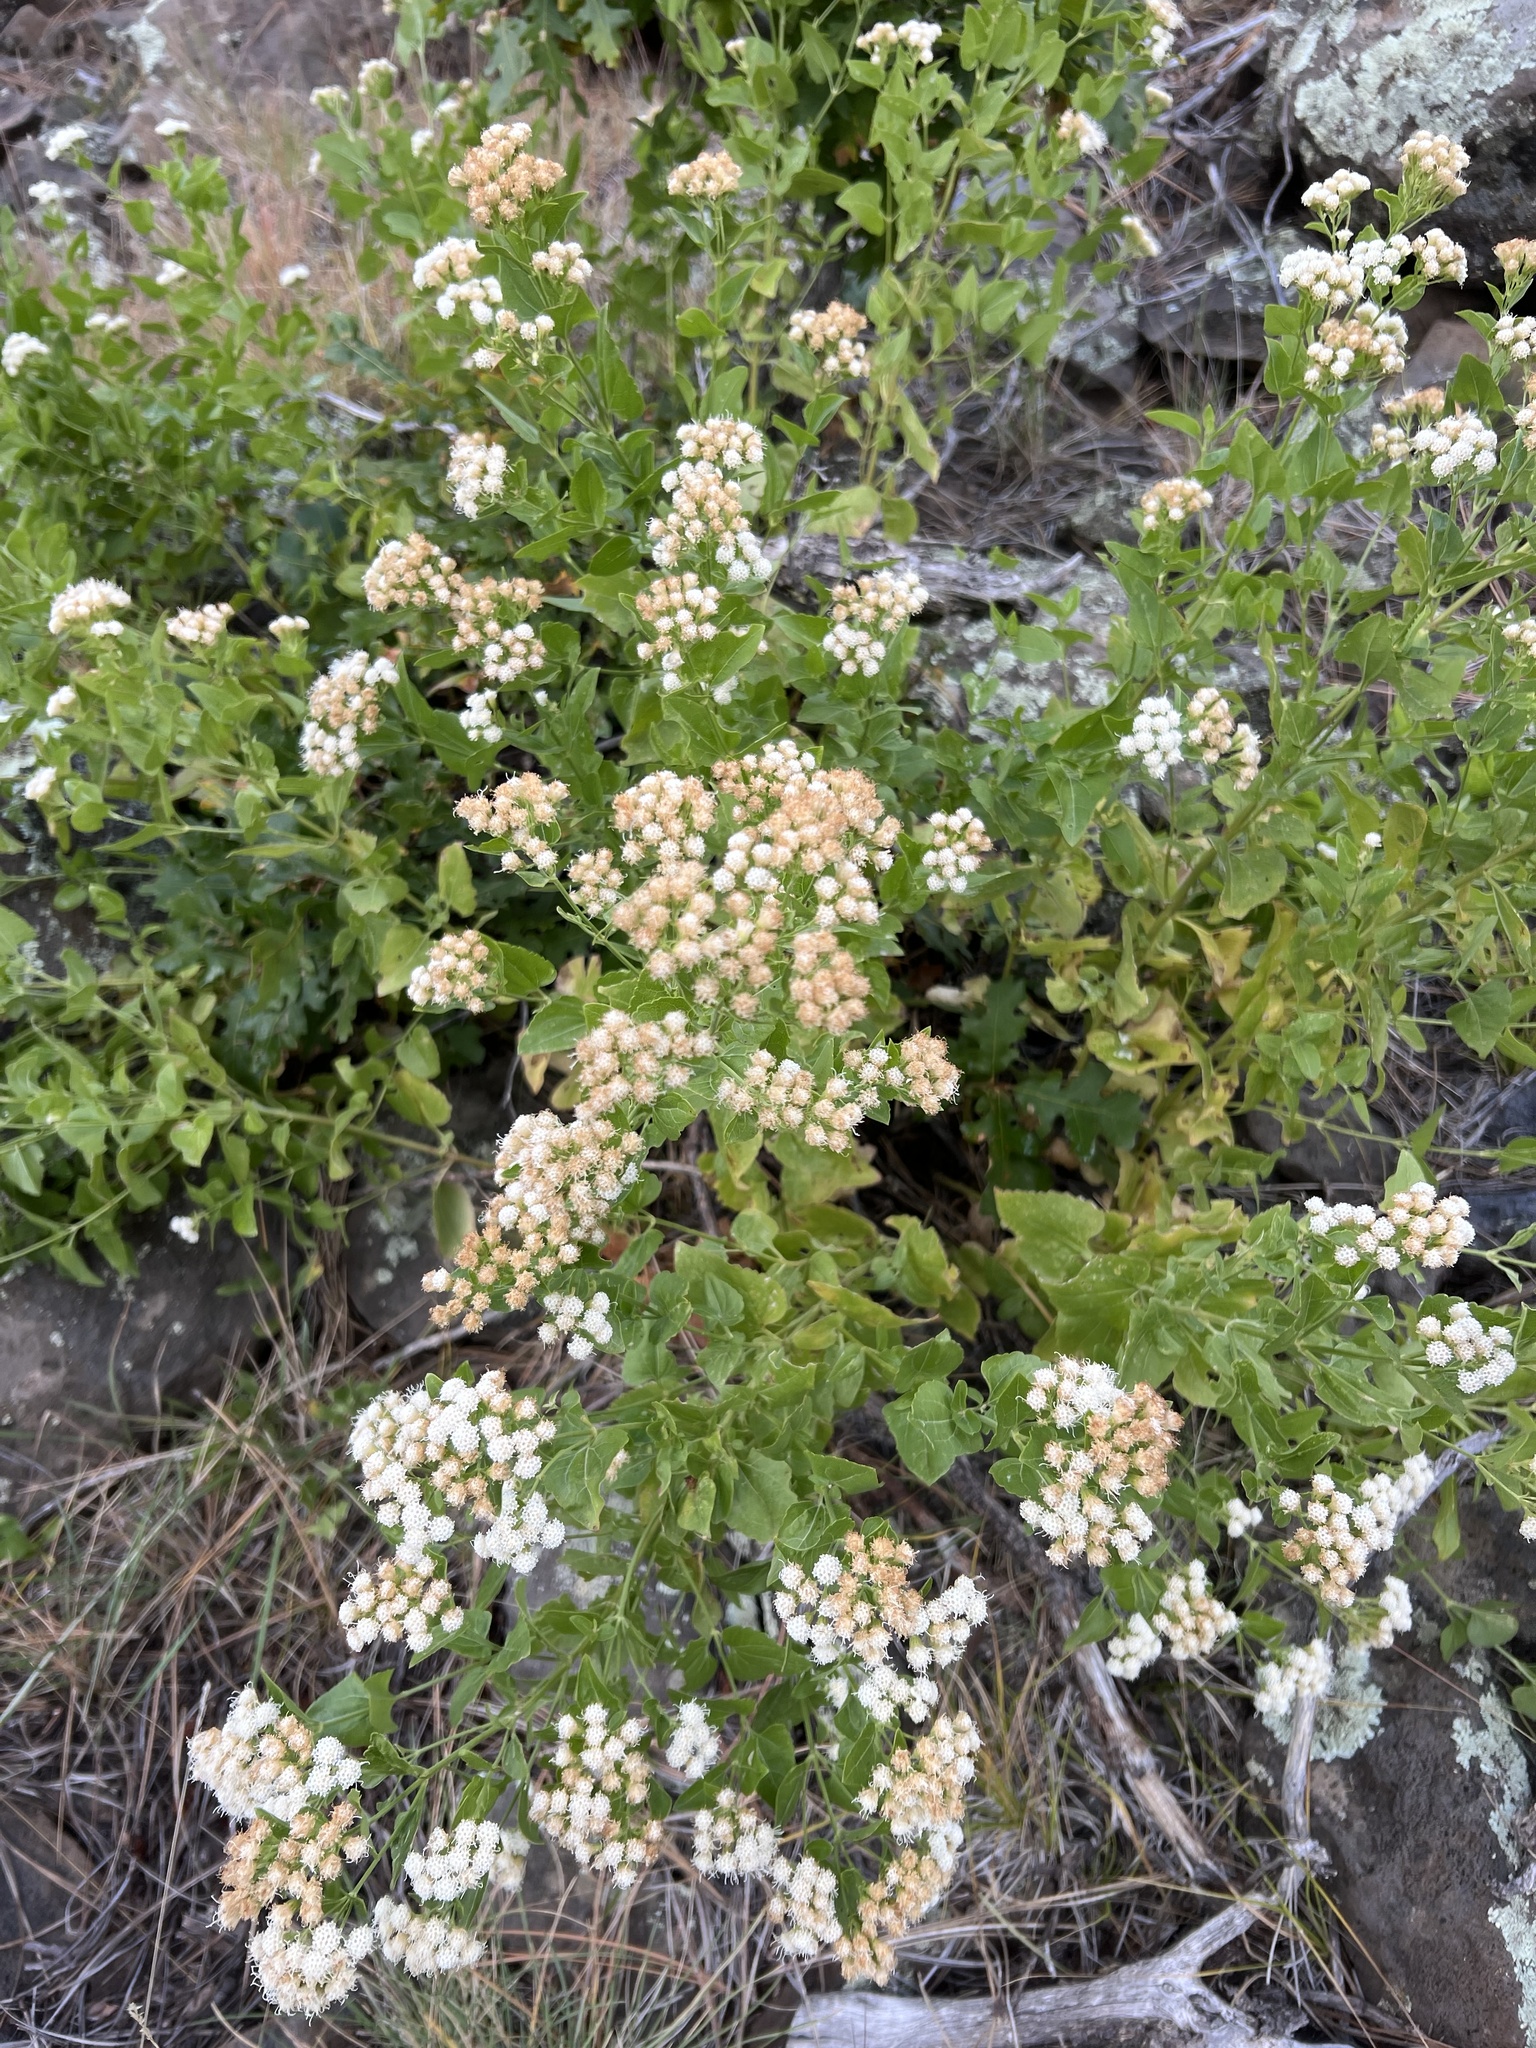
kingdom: Plantae
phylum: Tracheophyta
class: Magnoliopsida
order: Asterales
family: Asteraceae
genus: Ageratina
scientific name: Ageratina herbacea
